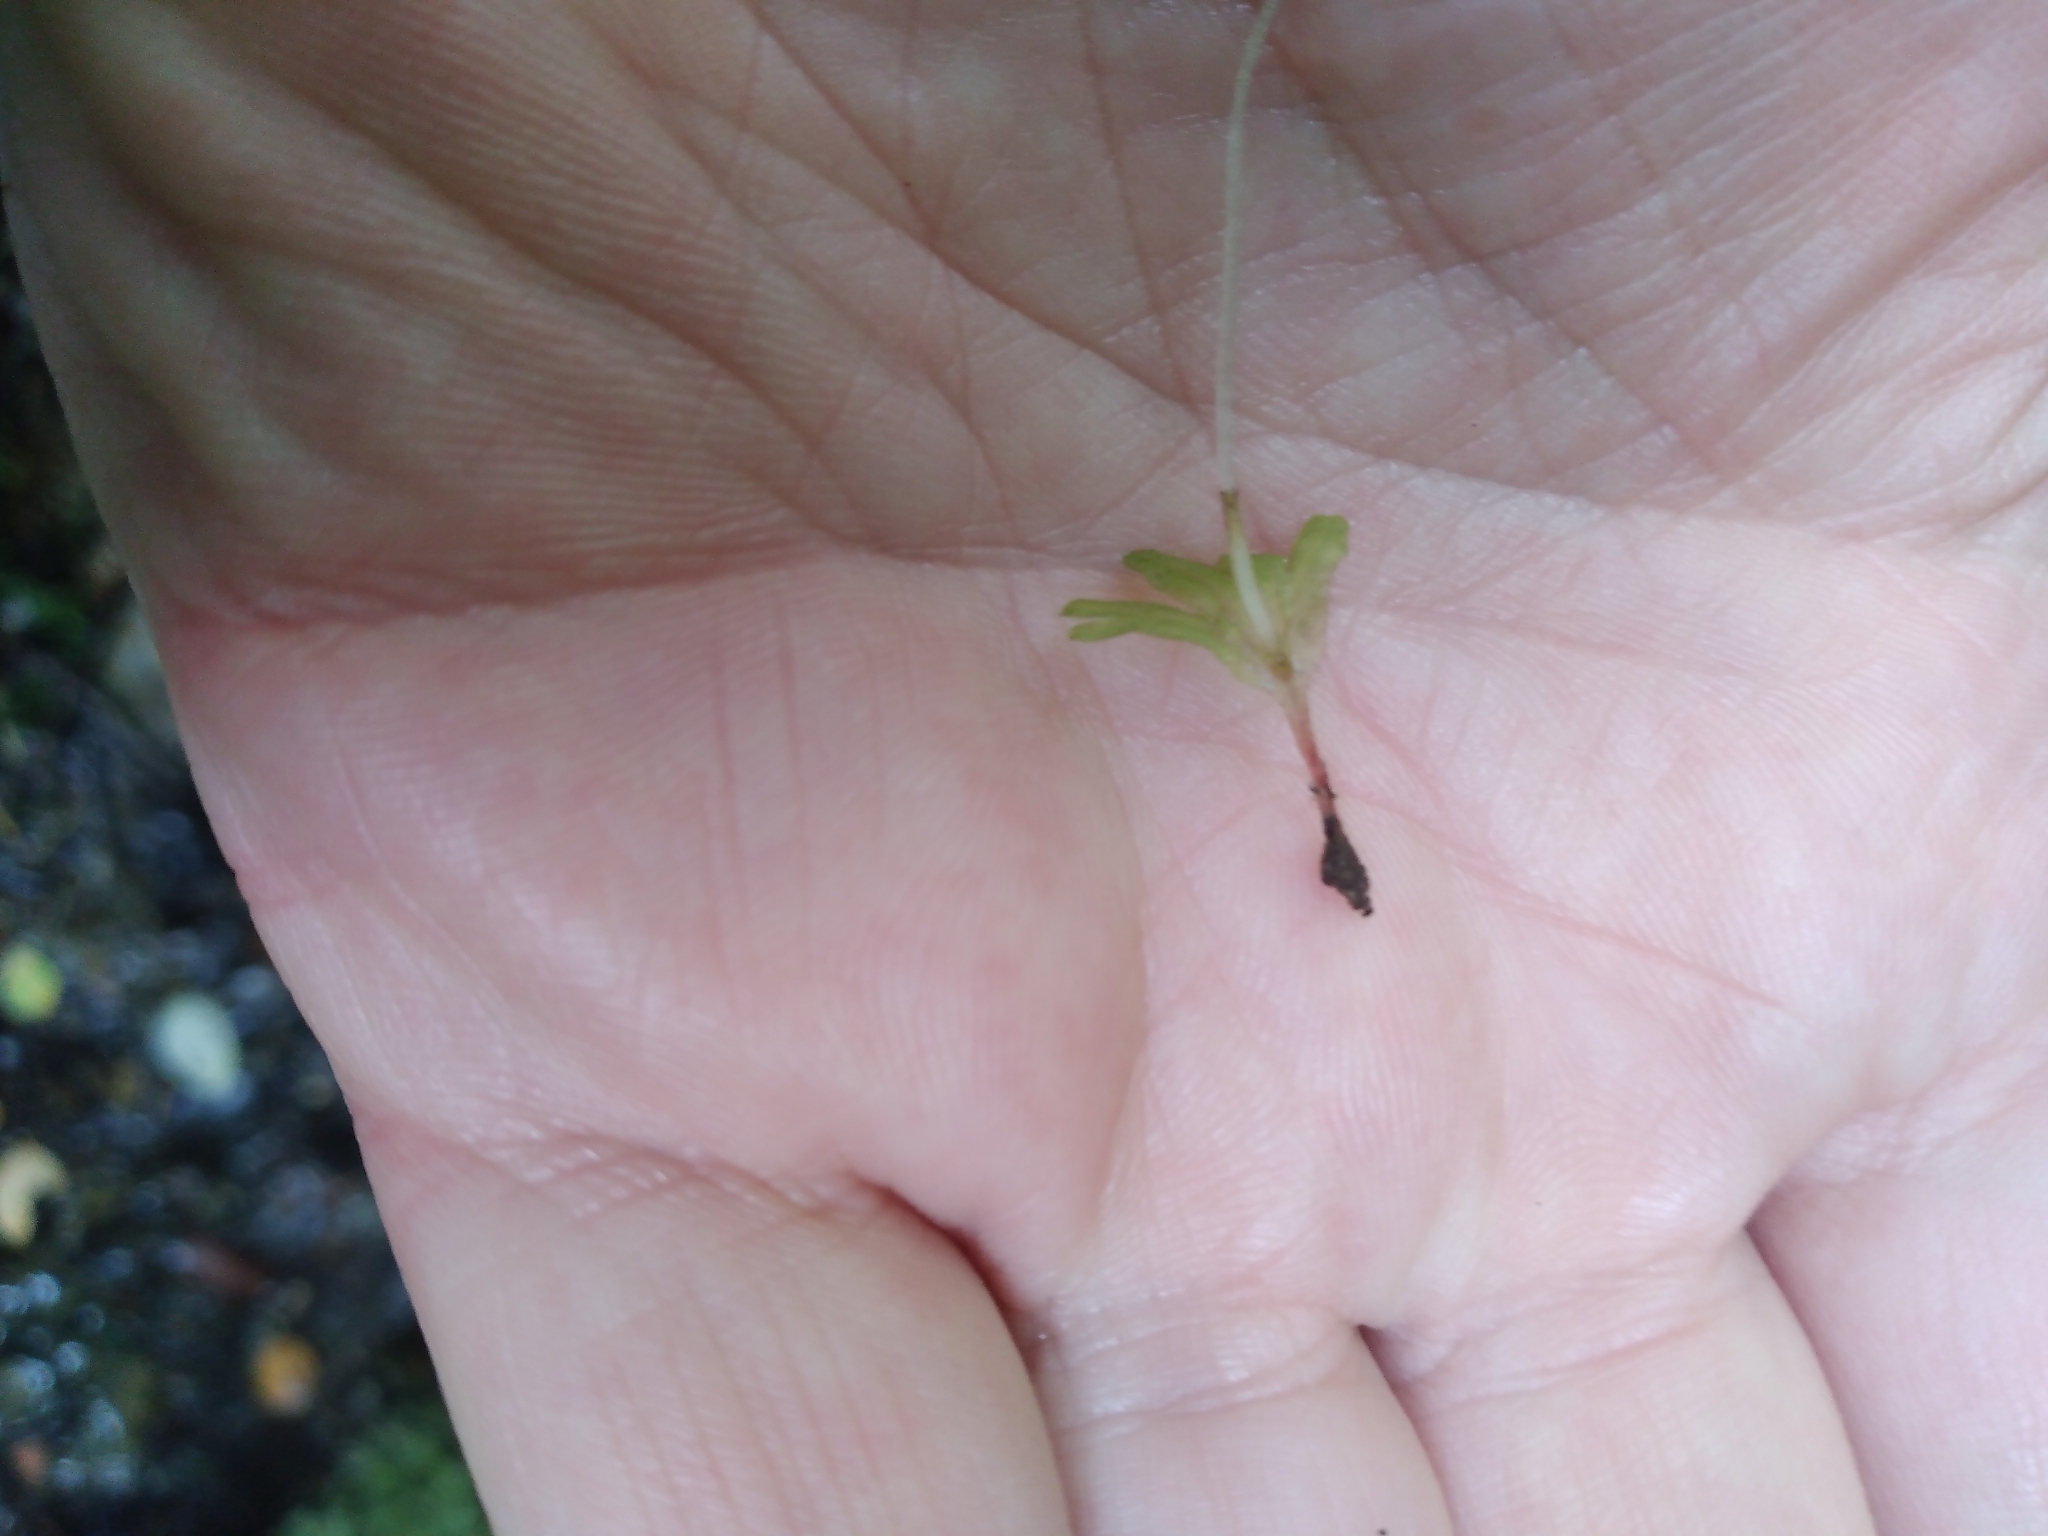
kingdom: Plantae
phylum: Marchantiophyta
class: Jungermanniopsida
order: Pallaviciniales
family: Pallaviciniaceae
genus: Symphyogyna
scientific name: Symphyogyna hymenophyllum
